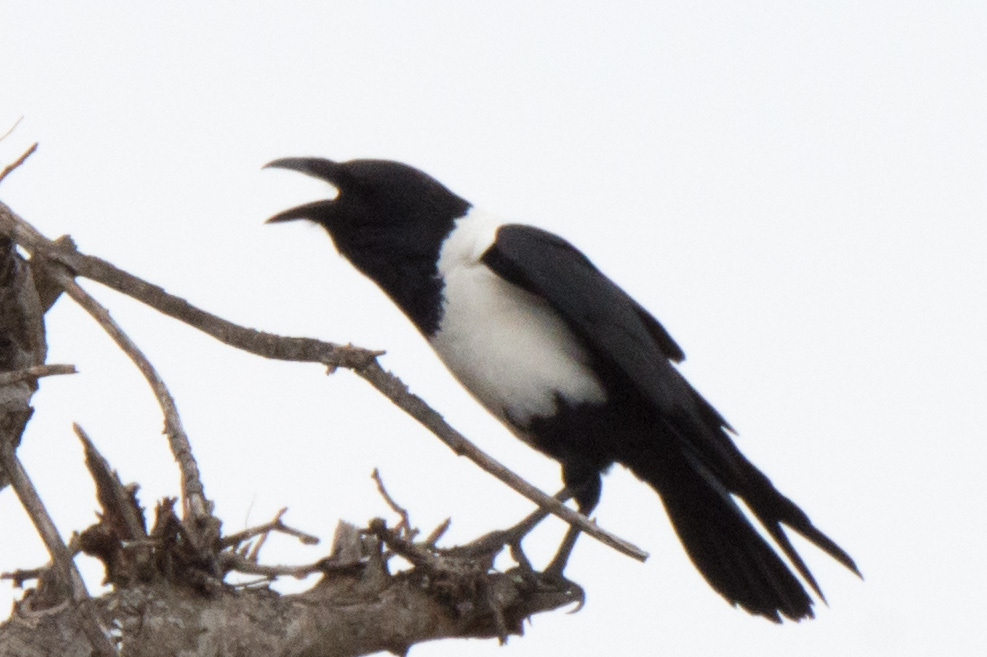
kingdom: Animalia
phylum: Chordata
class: Aves
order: Passeriformes
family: Corvidae
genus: Corvus
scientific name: Corvus albus
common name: Pied crow
